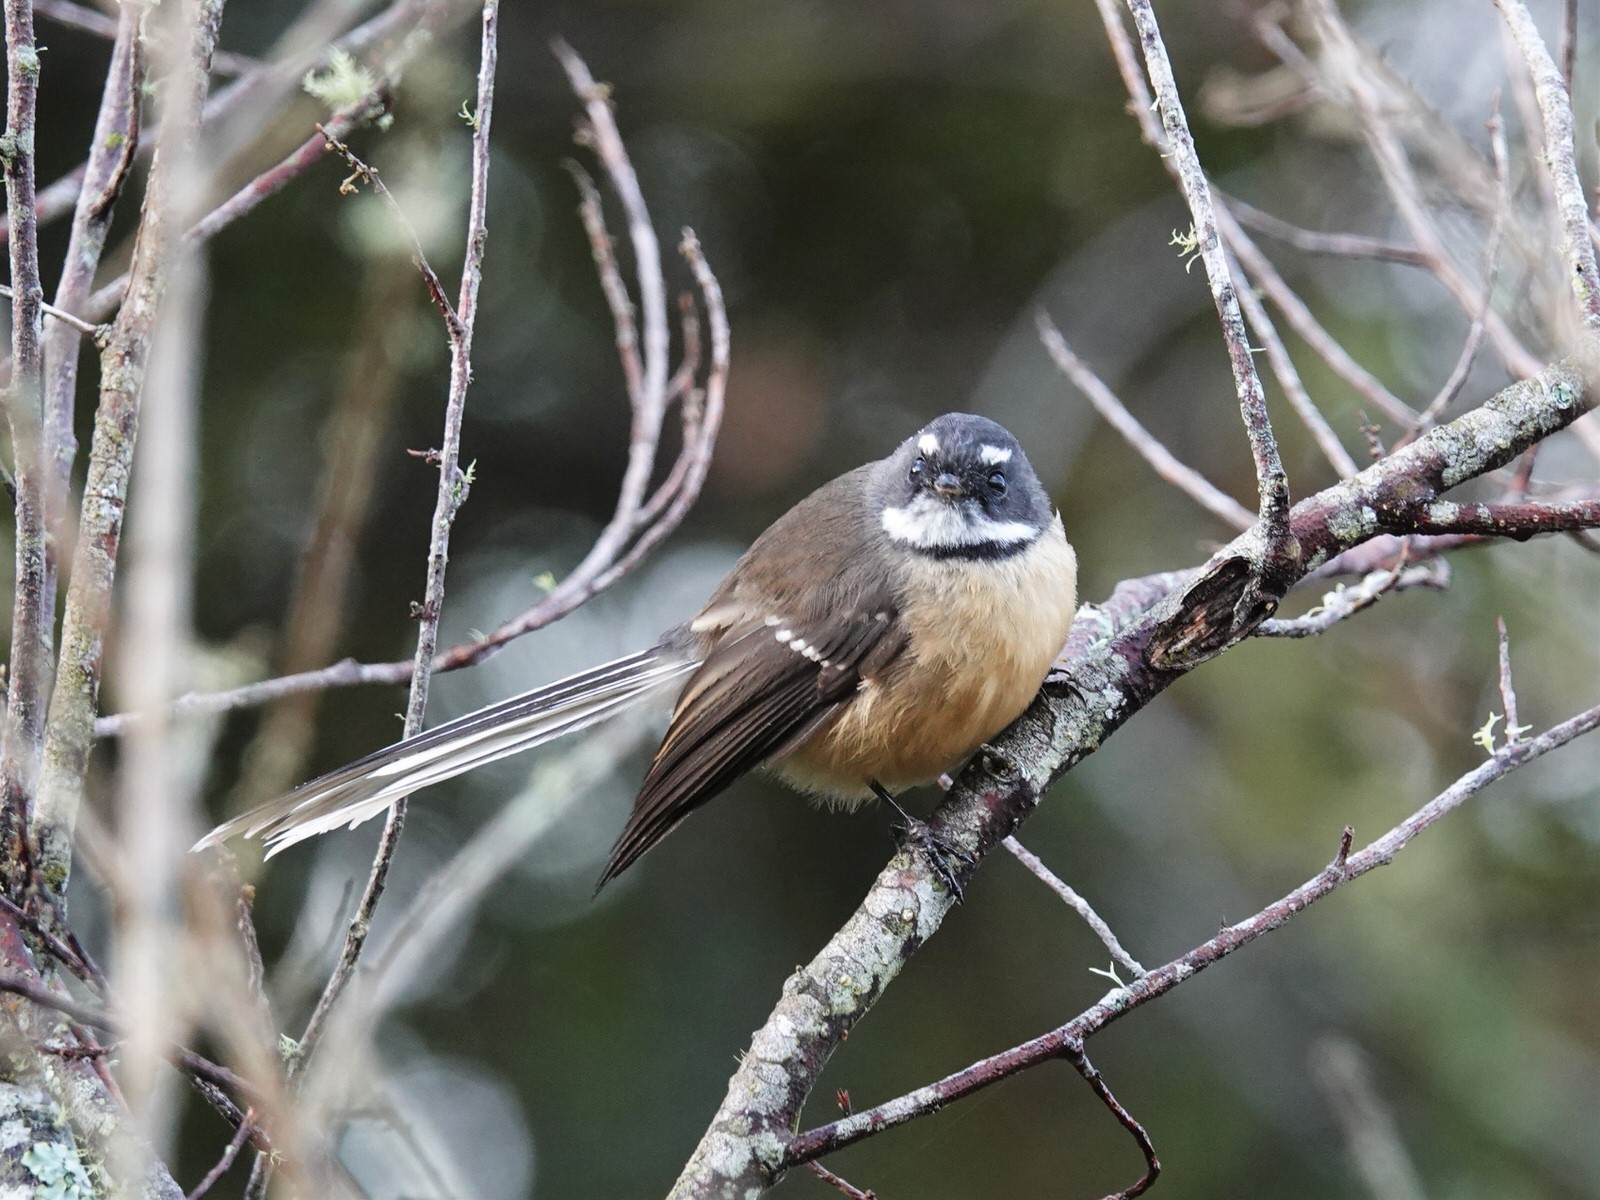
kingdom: Animalia
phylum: Chordata
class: Aves
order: Passeriformes
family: Rhipiduridae
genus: Rhipidura
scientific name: Rhipidura fuliginosa
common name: New zealand fantail
